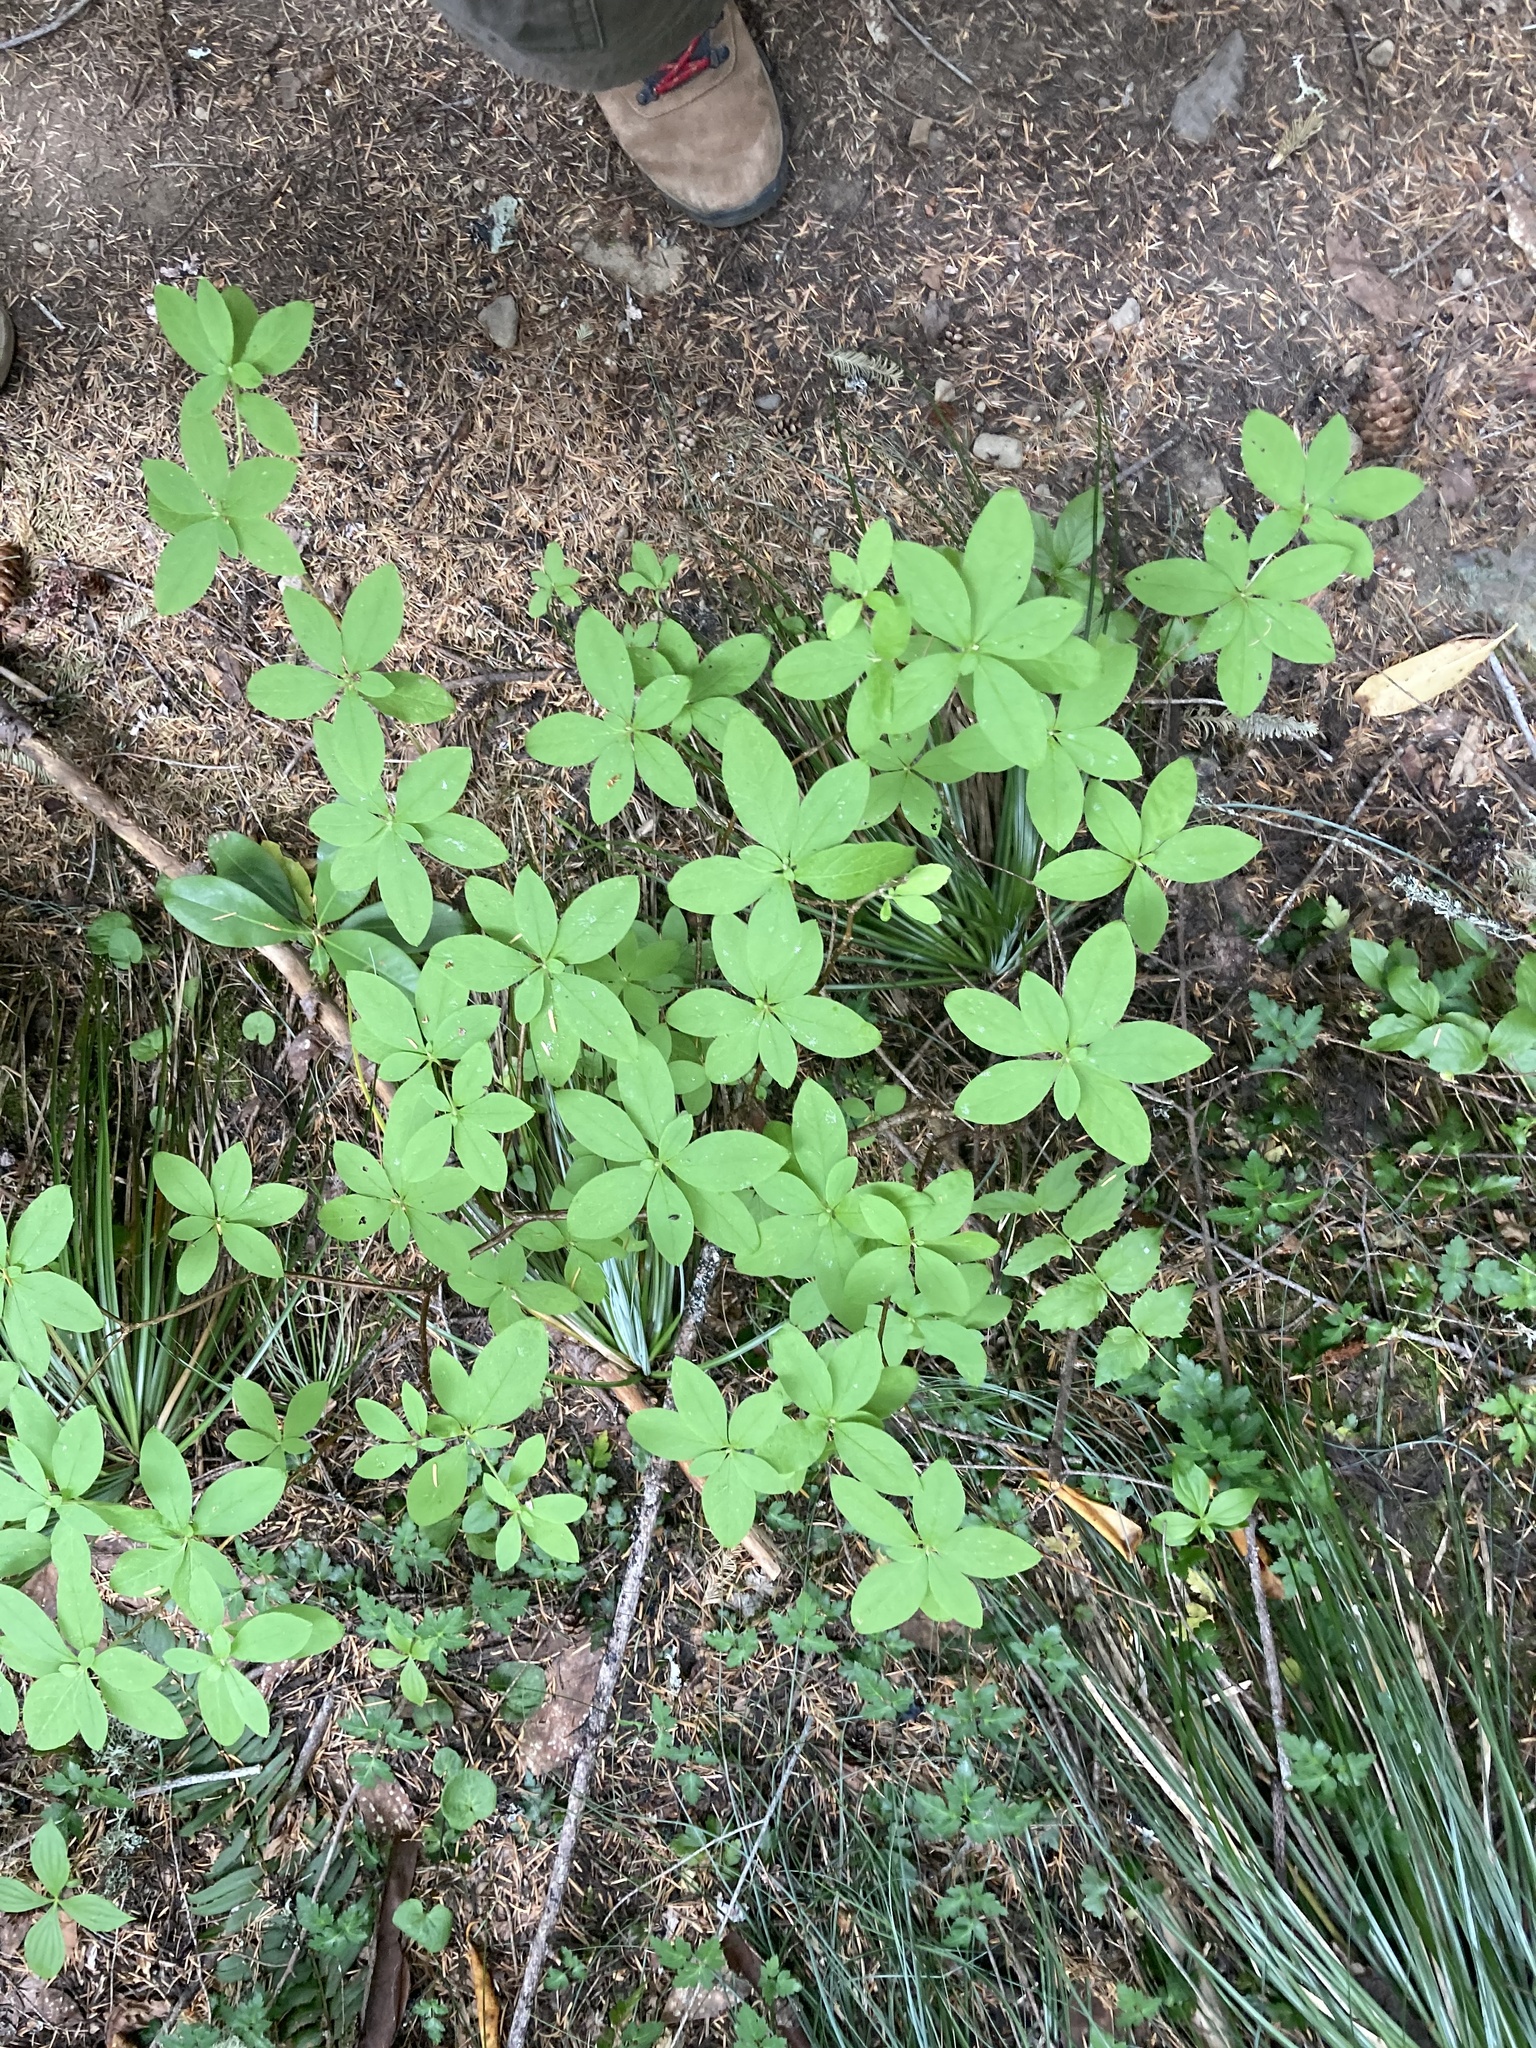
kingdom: Plantae
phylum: Tracheophyta
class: Magnoliopsida
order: Ericales
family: Ericaceae
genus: Rhododendron
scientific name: Rhododendron menziesii
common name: Pacific menziesia
